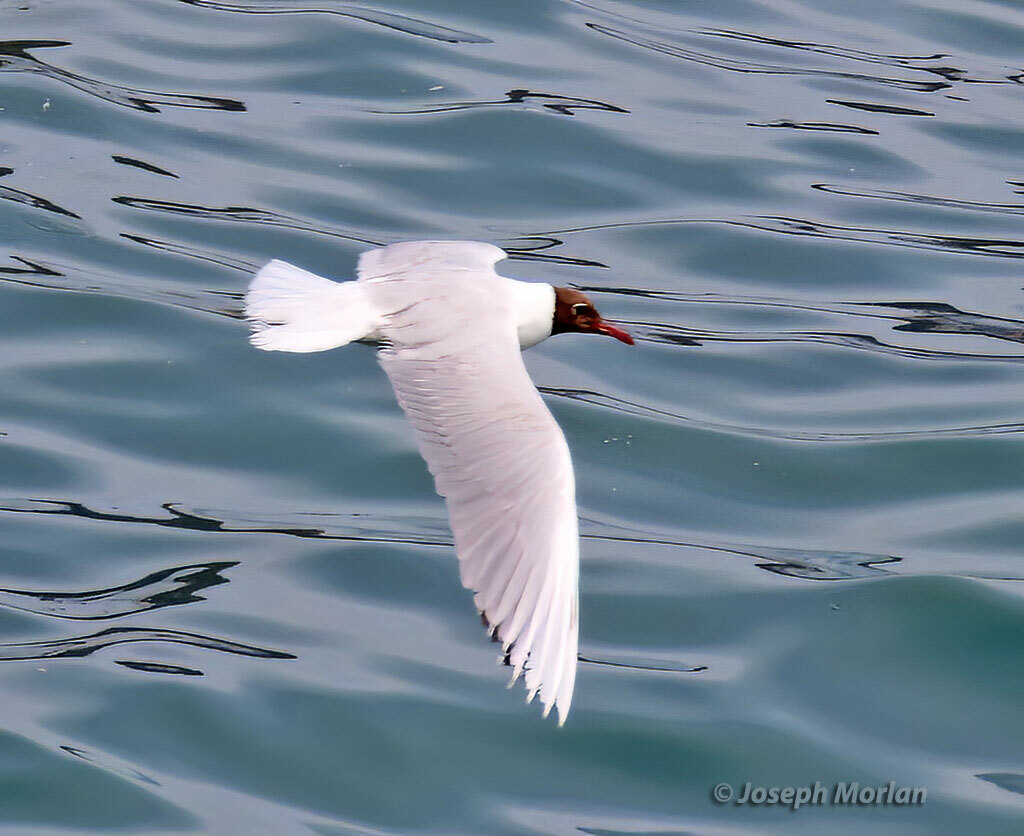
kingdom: Animalia
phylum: Chordata
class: Aves
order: Charadriiformes
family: Laridae
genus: Chroicocephalus
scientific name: Chroicocephalus maculipennis
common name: Brown-hooded gull
